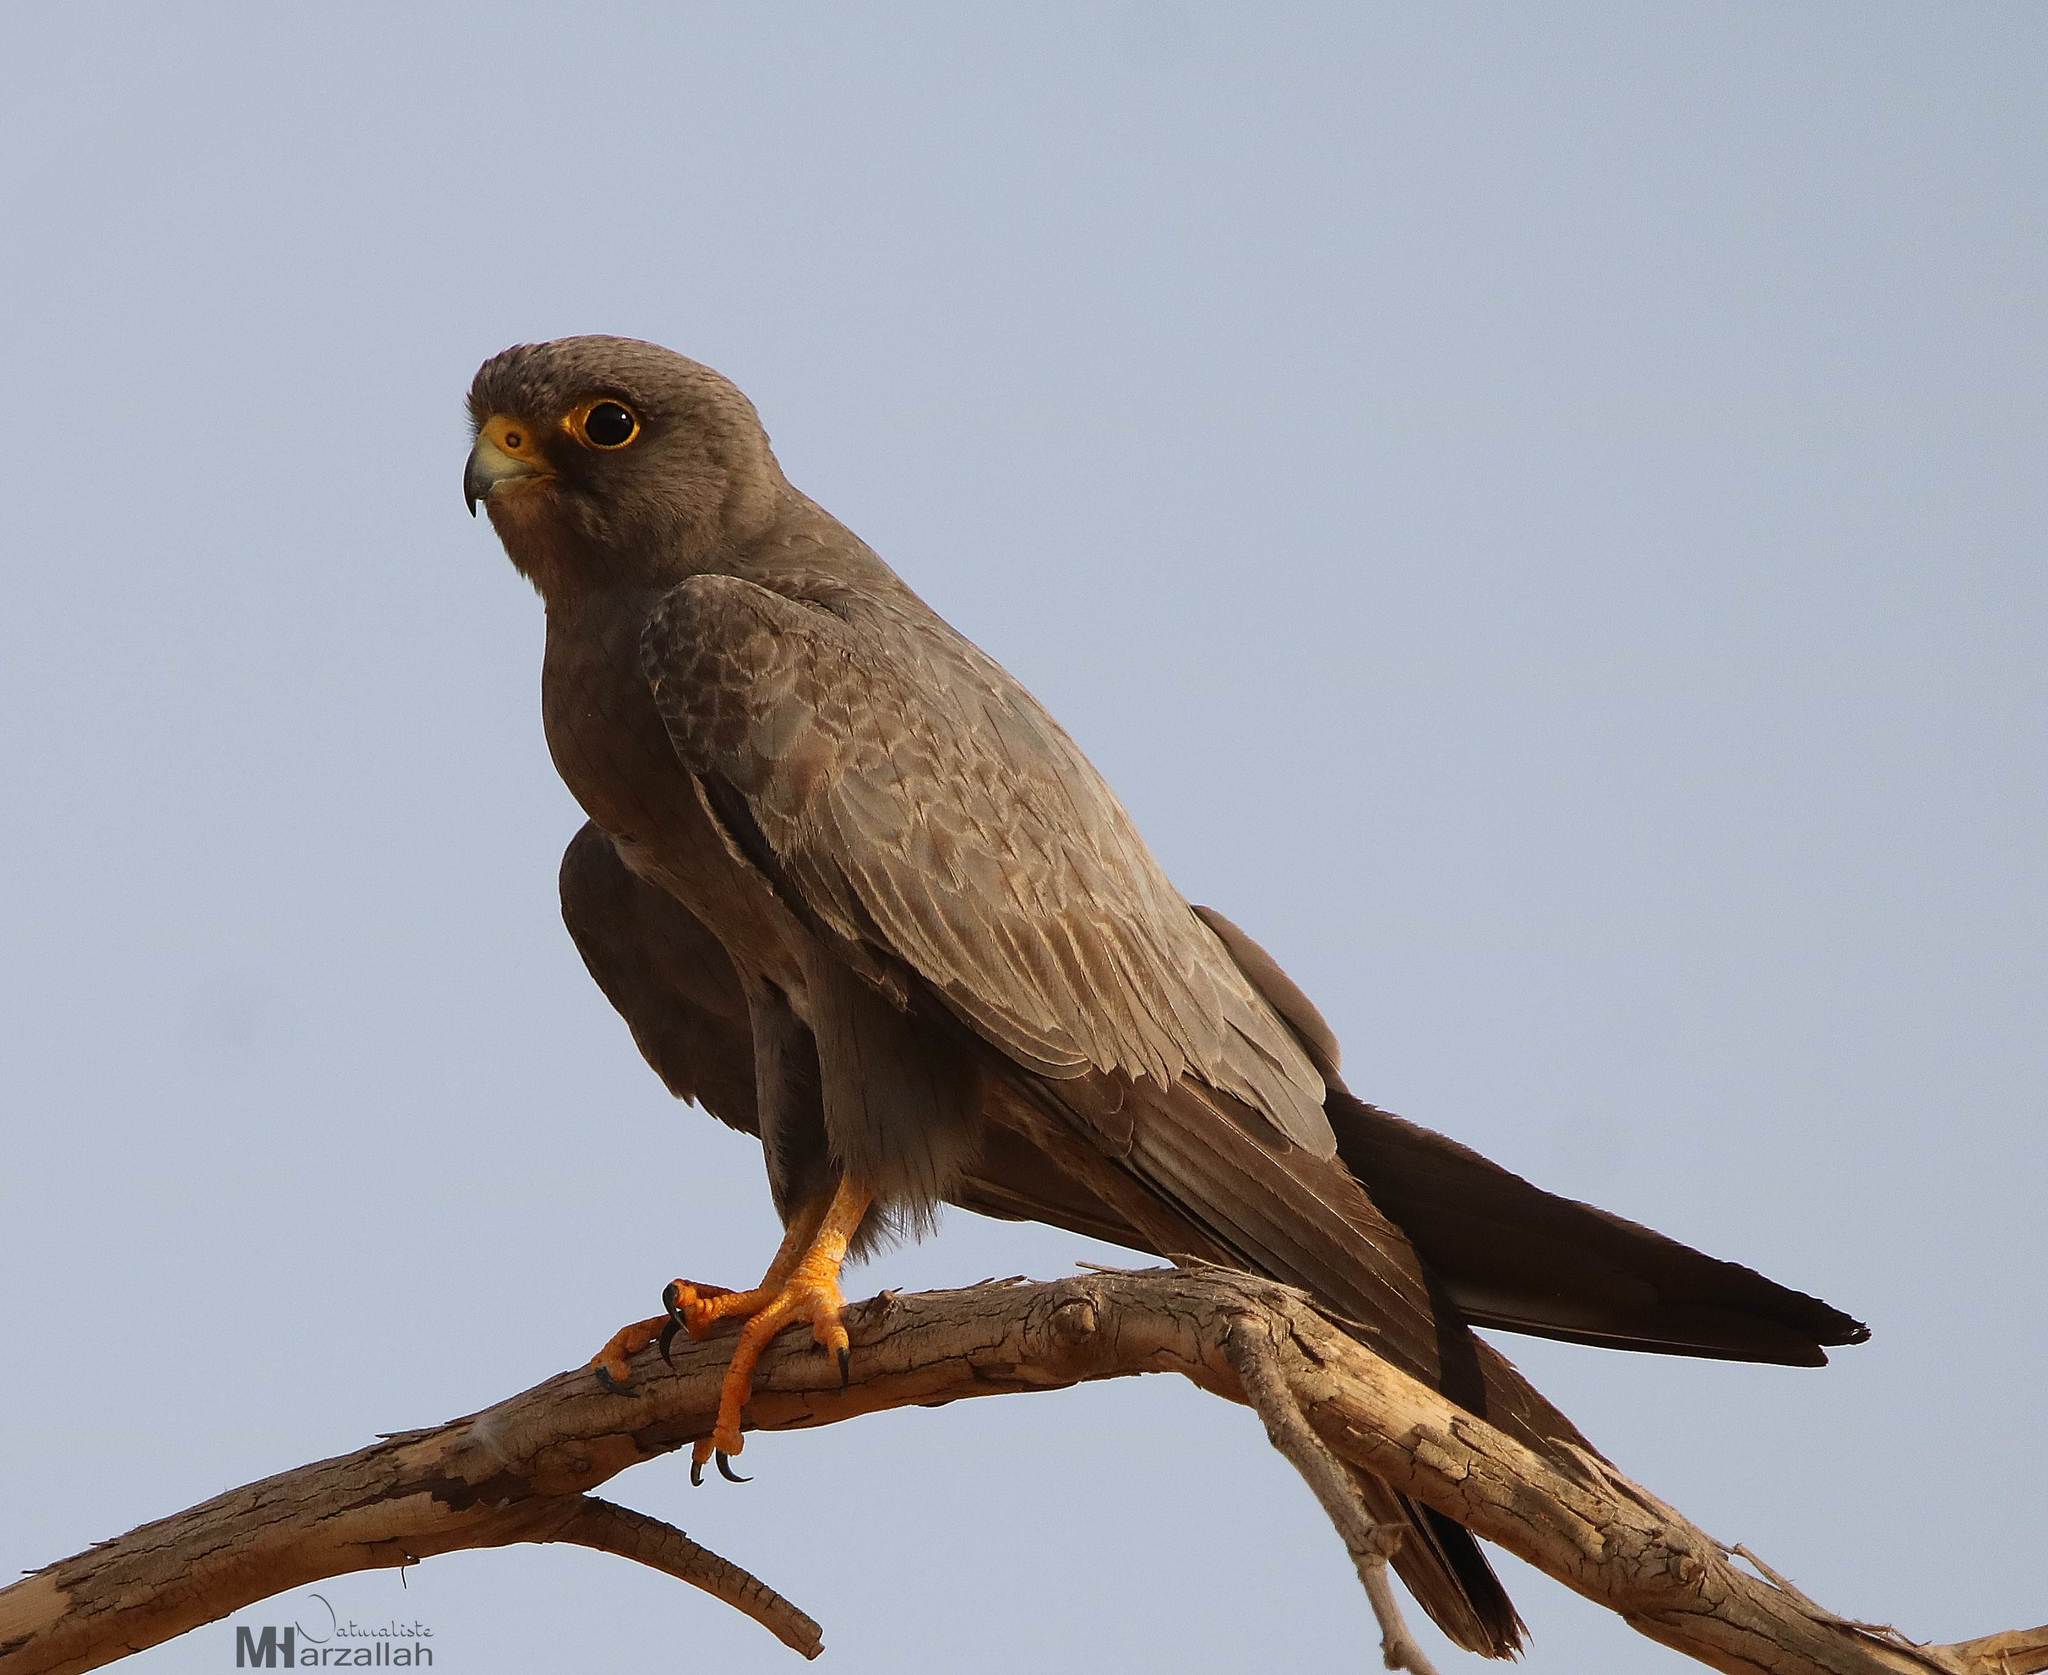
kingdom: Animalia
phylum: Chordata
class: Aves
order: Falconiformes
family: Falconidae
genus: Falco
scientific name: Falco concolor
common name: Sooty falcon
